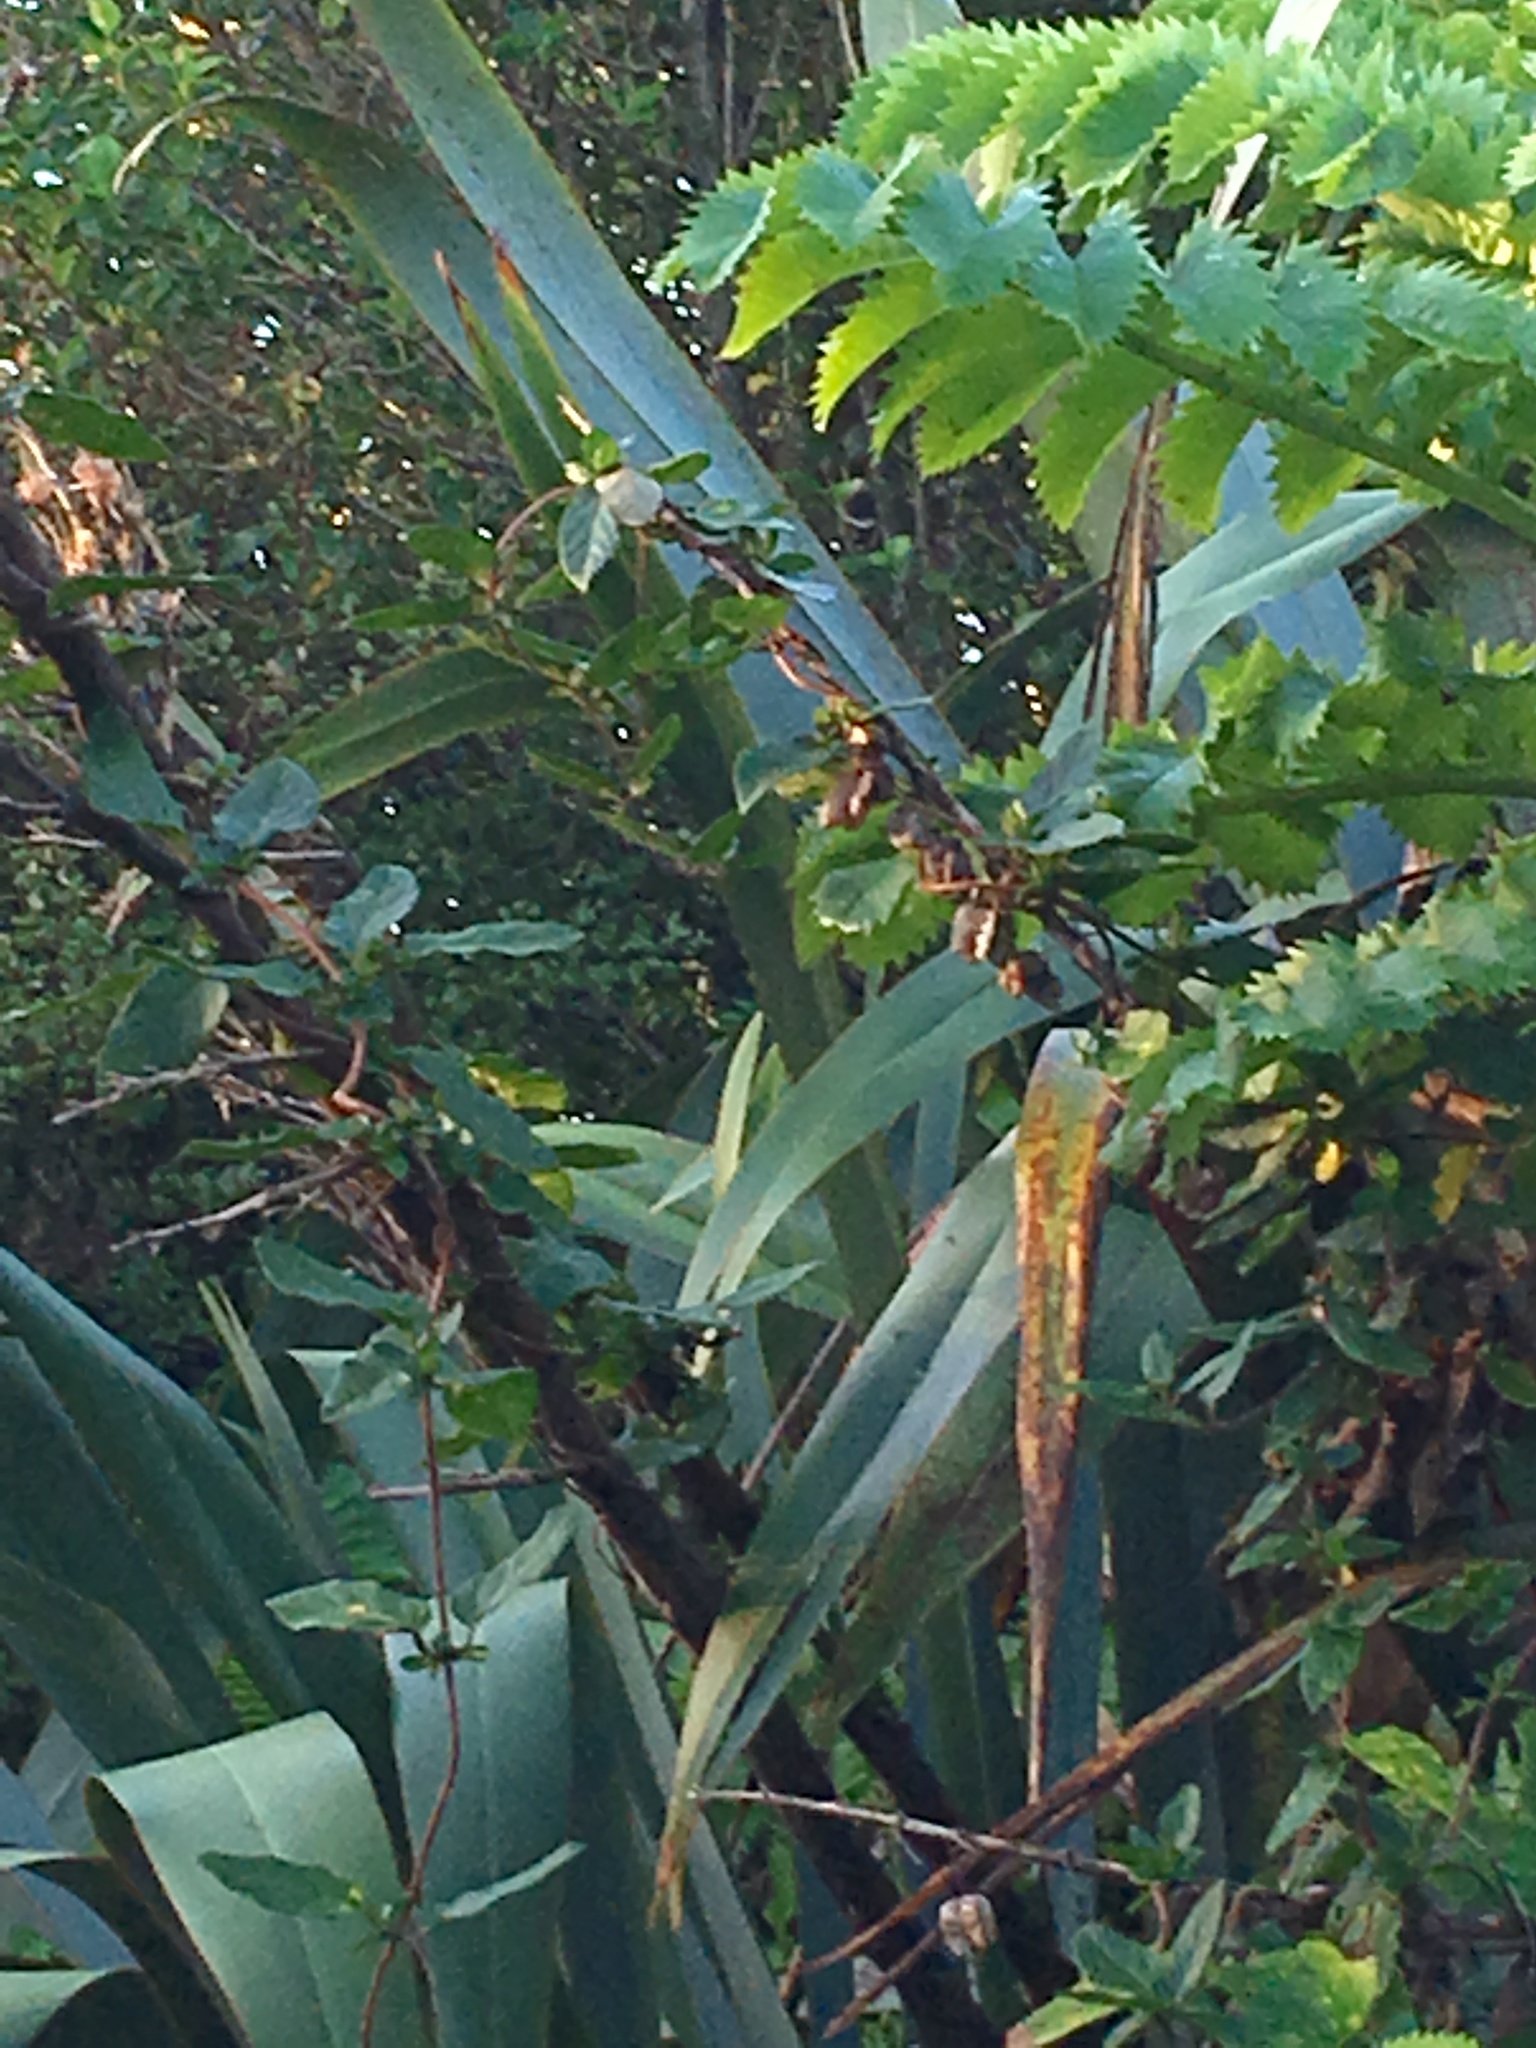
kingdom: Plantae
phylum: Tracheophyta
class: Magnoliopsida
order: Geraniales
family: Melianthaceae
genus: Melianthus
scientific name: Melianthus major
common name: Honey-flower
